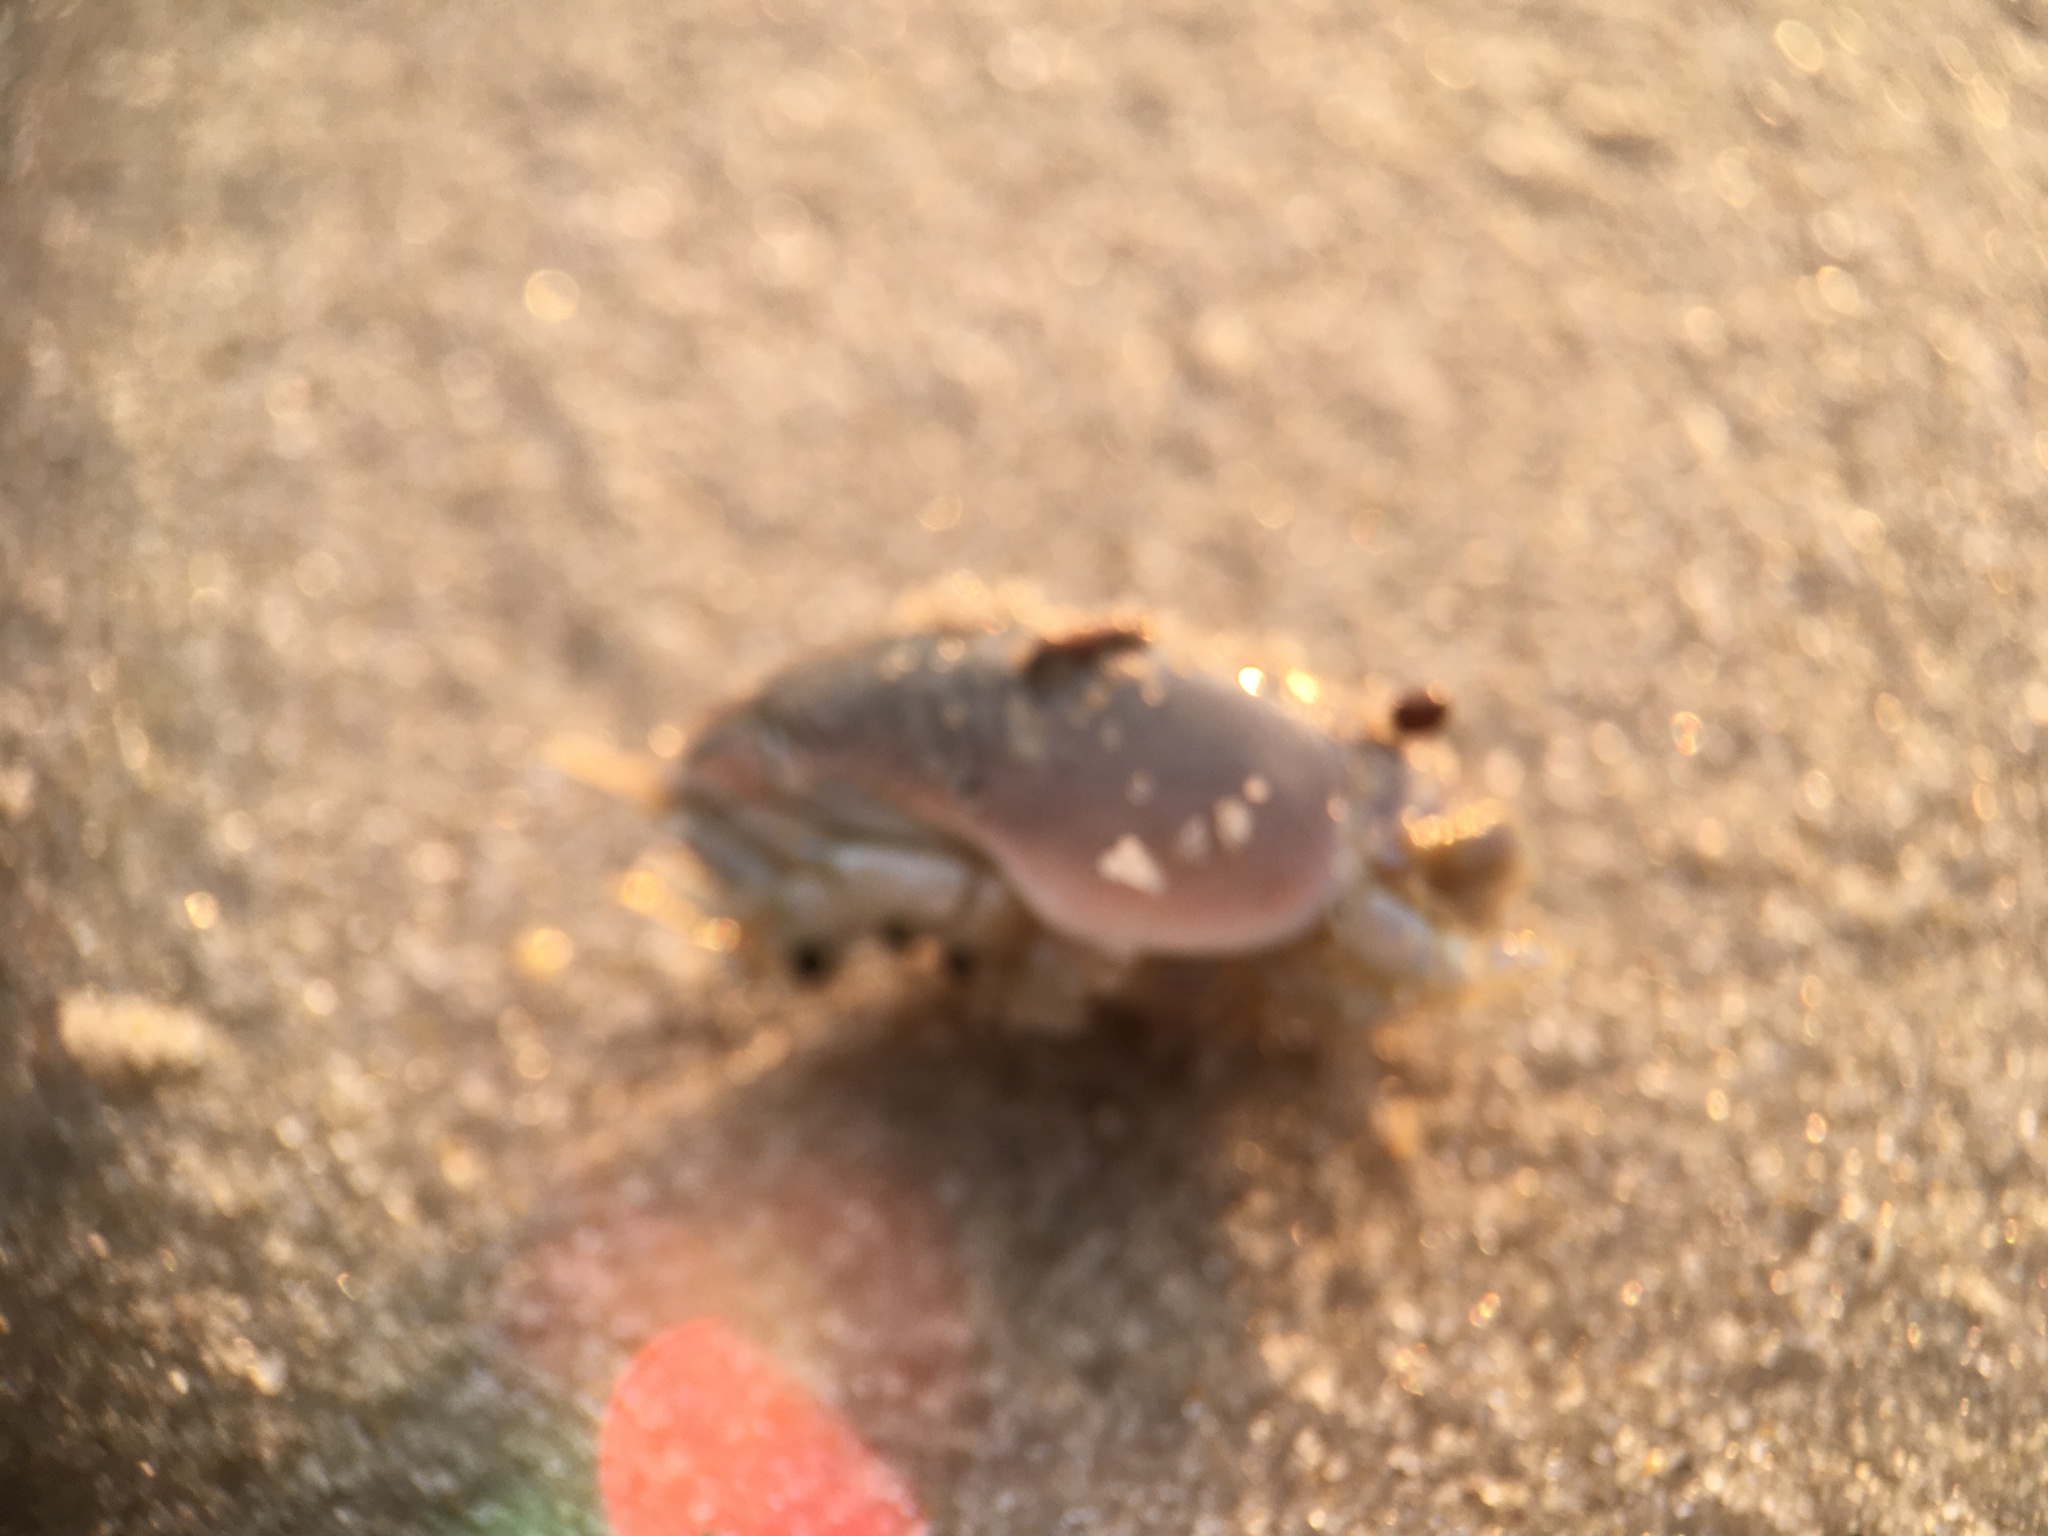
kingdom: Animalia
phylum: Arthropoda
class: Malacostraca
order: Decapoda
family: Hippidae
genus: Emerita
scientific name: Emerita talpoida
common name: Atlantic sand crab
